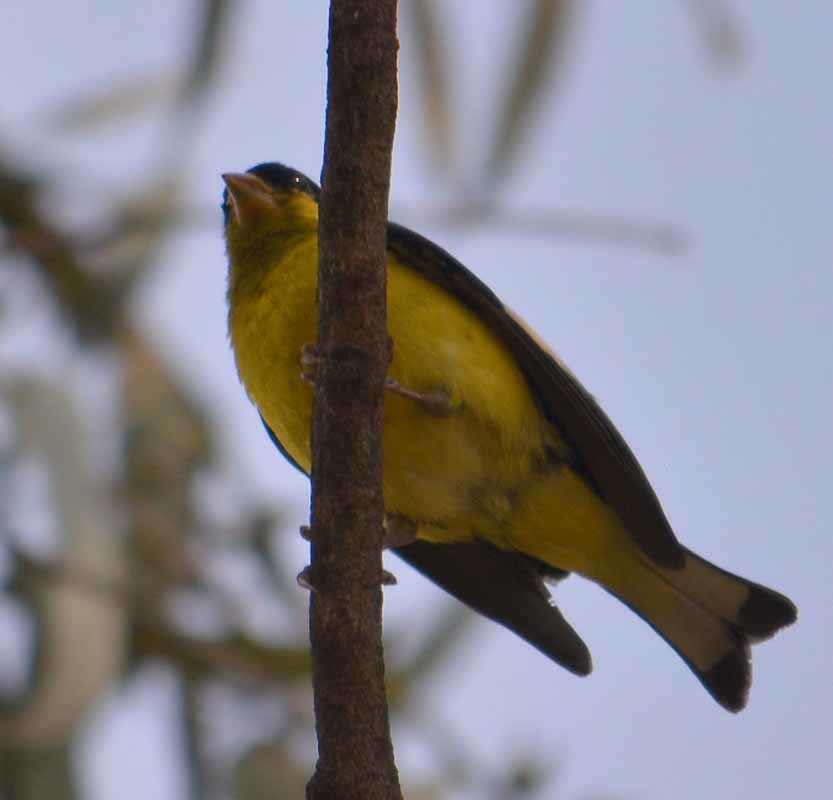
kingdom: Animalia
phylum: Chordata
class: Aves
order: Passeriformes
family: Fringillidae
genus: Spinus
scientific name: Spinus psaltria
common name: Lesser goldfinch
